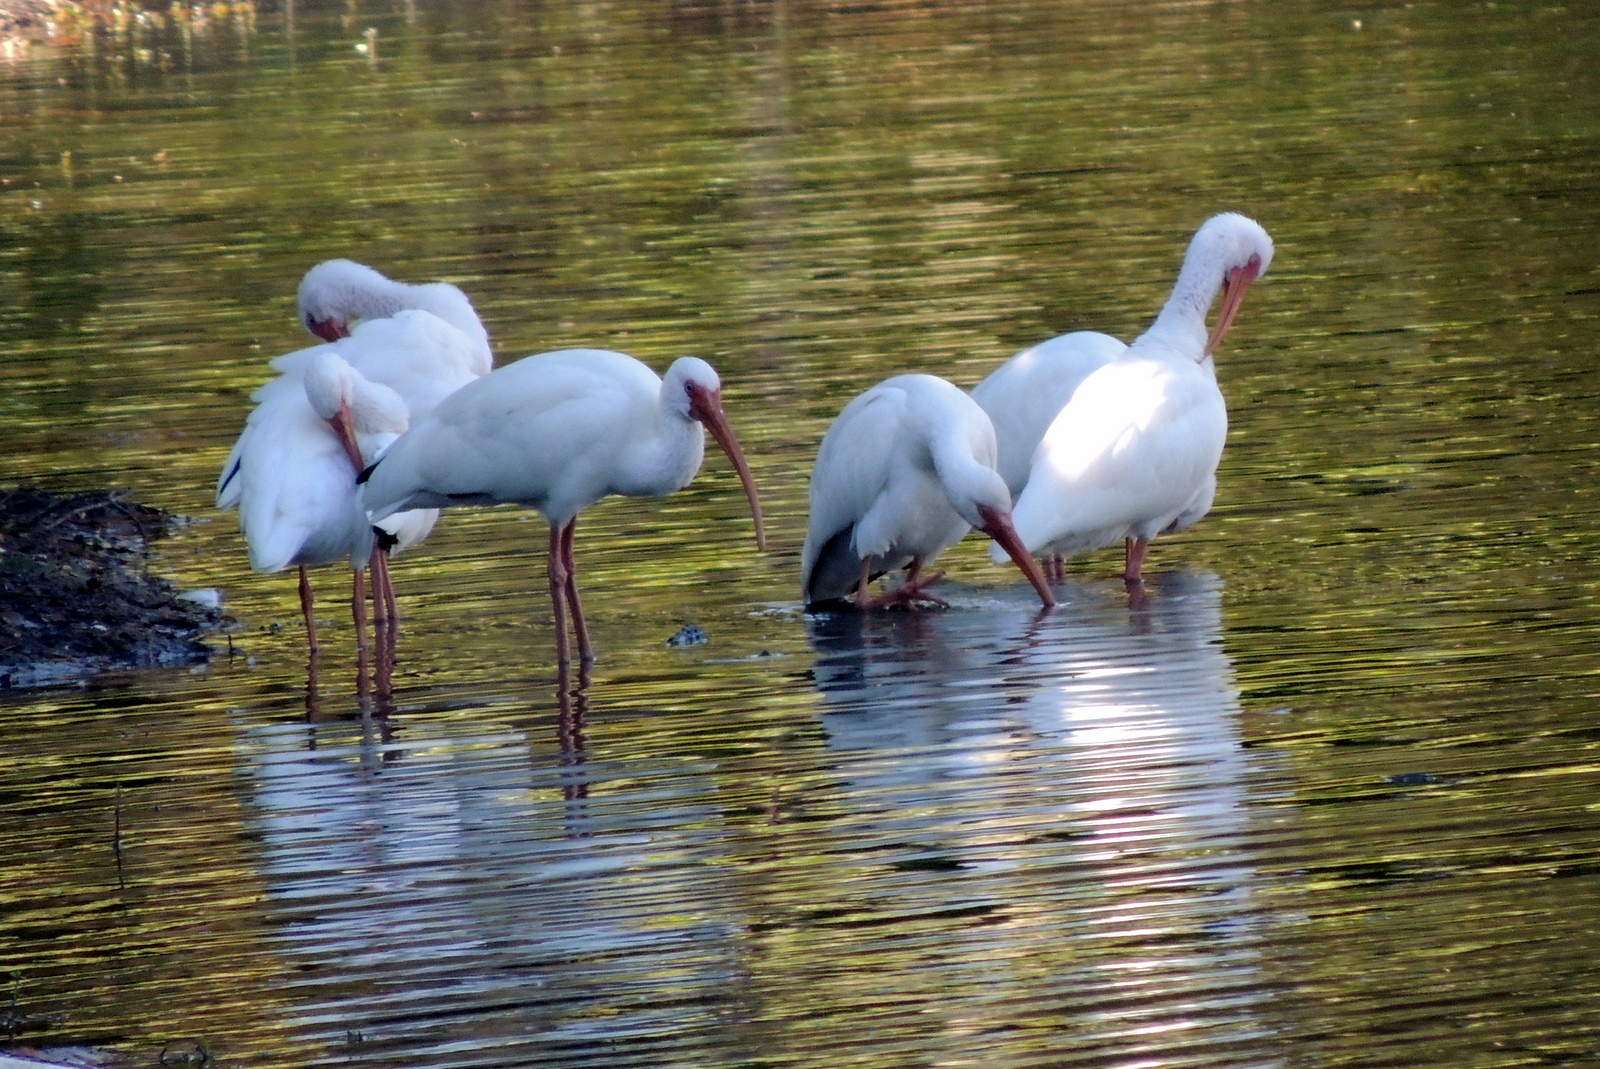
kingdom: Animalia
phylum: Chordata
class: Aves
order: Pelecaniformes
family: Threskiornithidae
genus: Eudocimus
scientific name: Eudocimus albus
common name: White ibis
